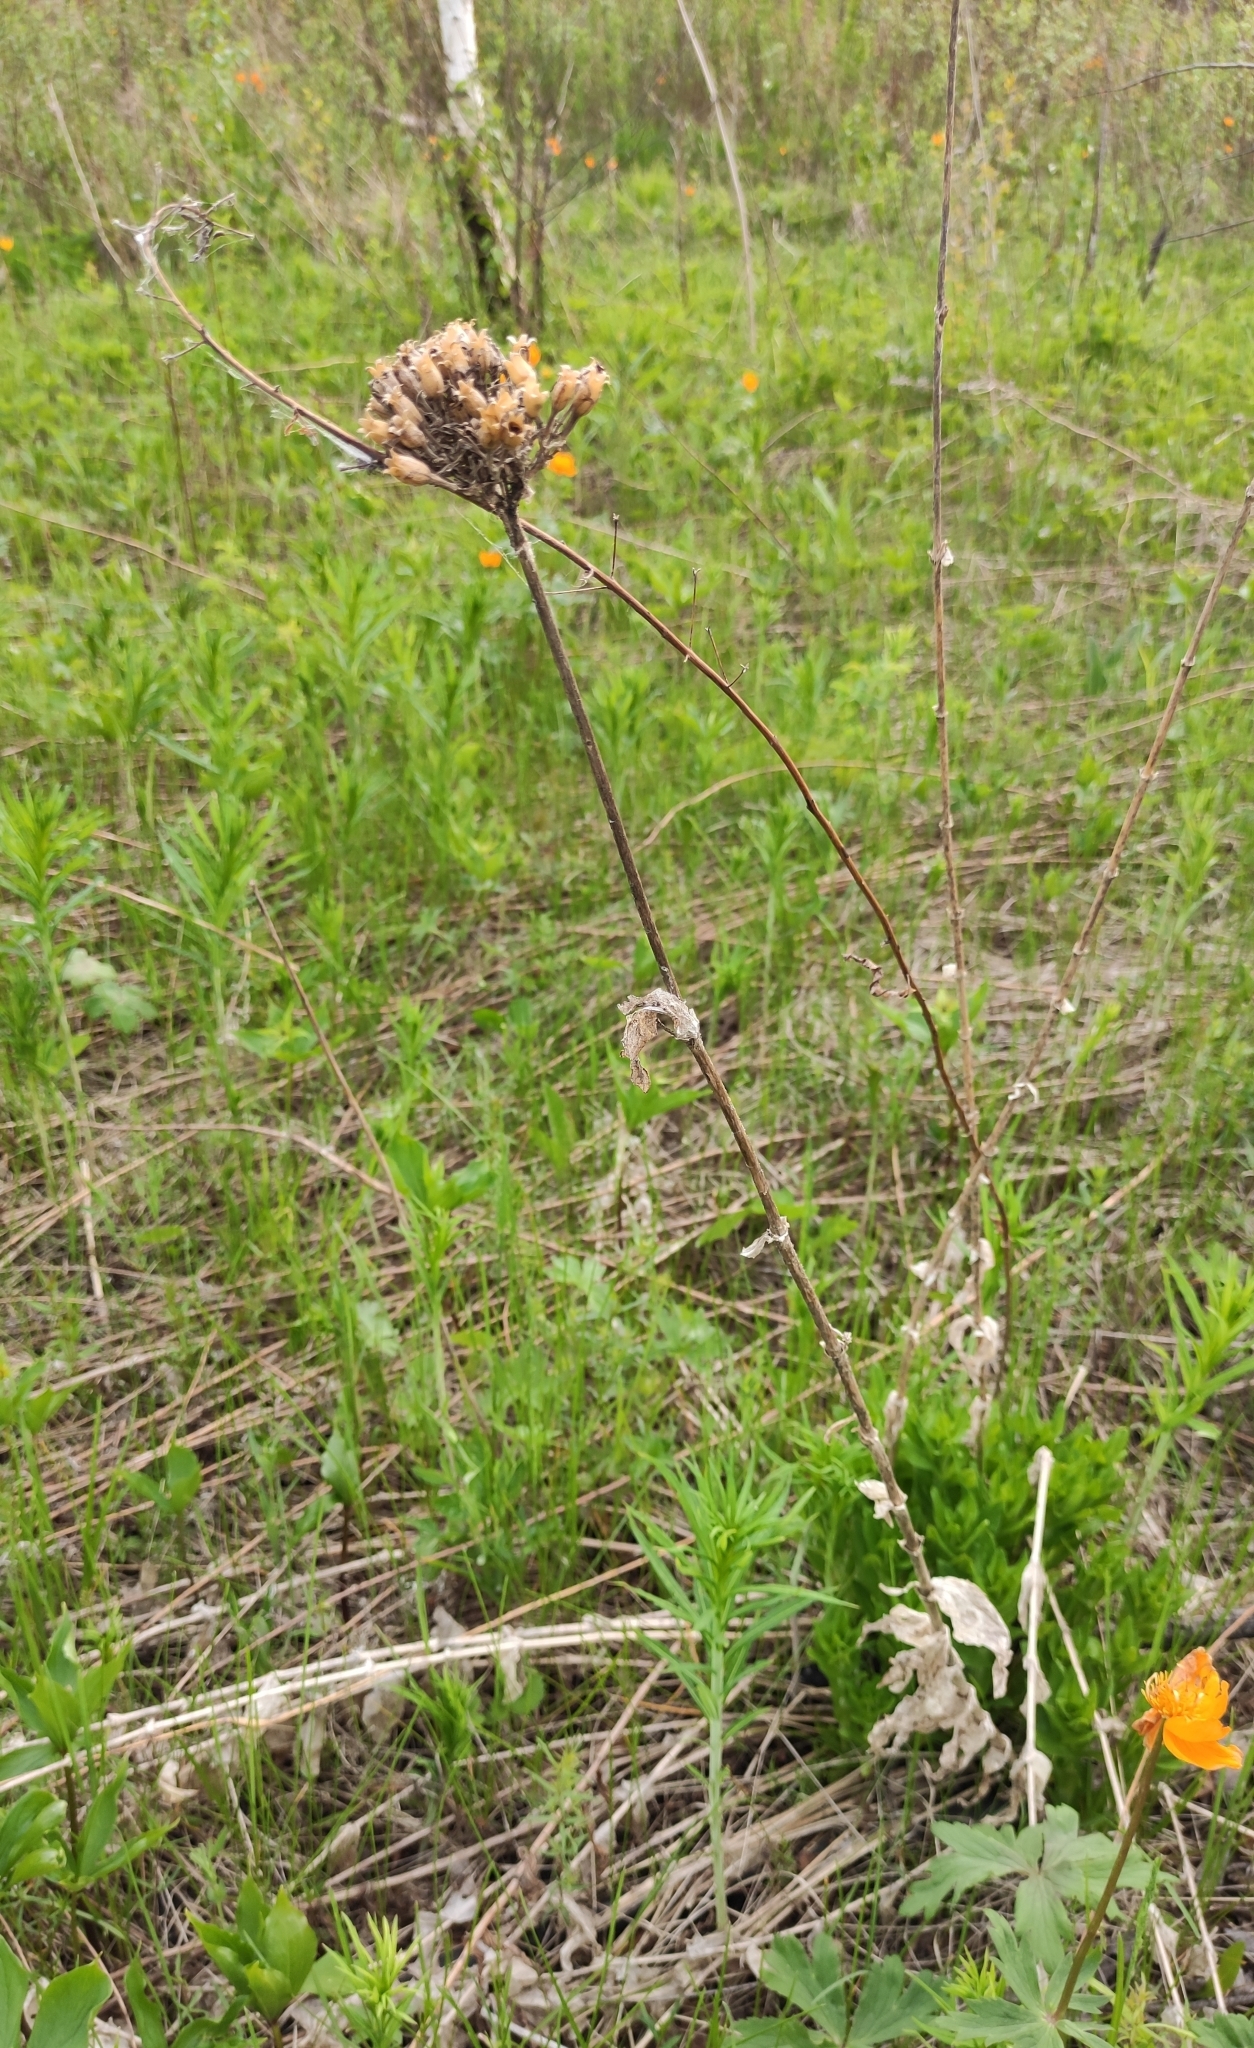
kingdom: Plantae
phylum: Tracheophyta
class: Magnoliopsida
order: Caryophyllales
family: Caryophyllaceae
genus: Silene
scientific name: Silene chalcedonica
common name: Maltese-cross
